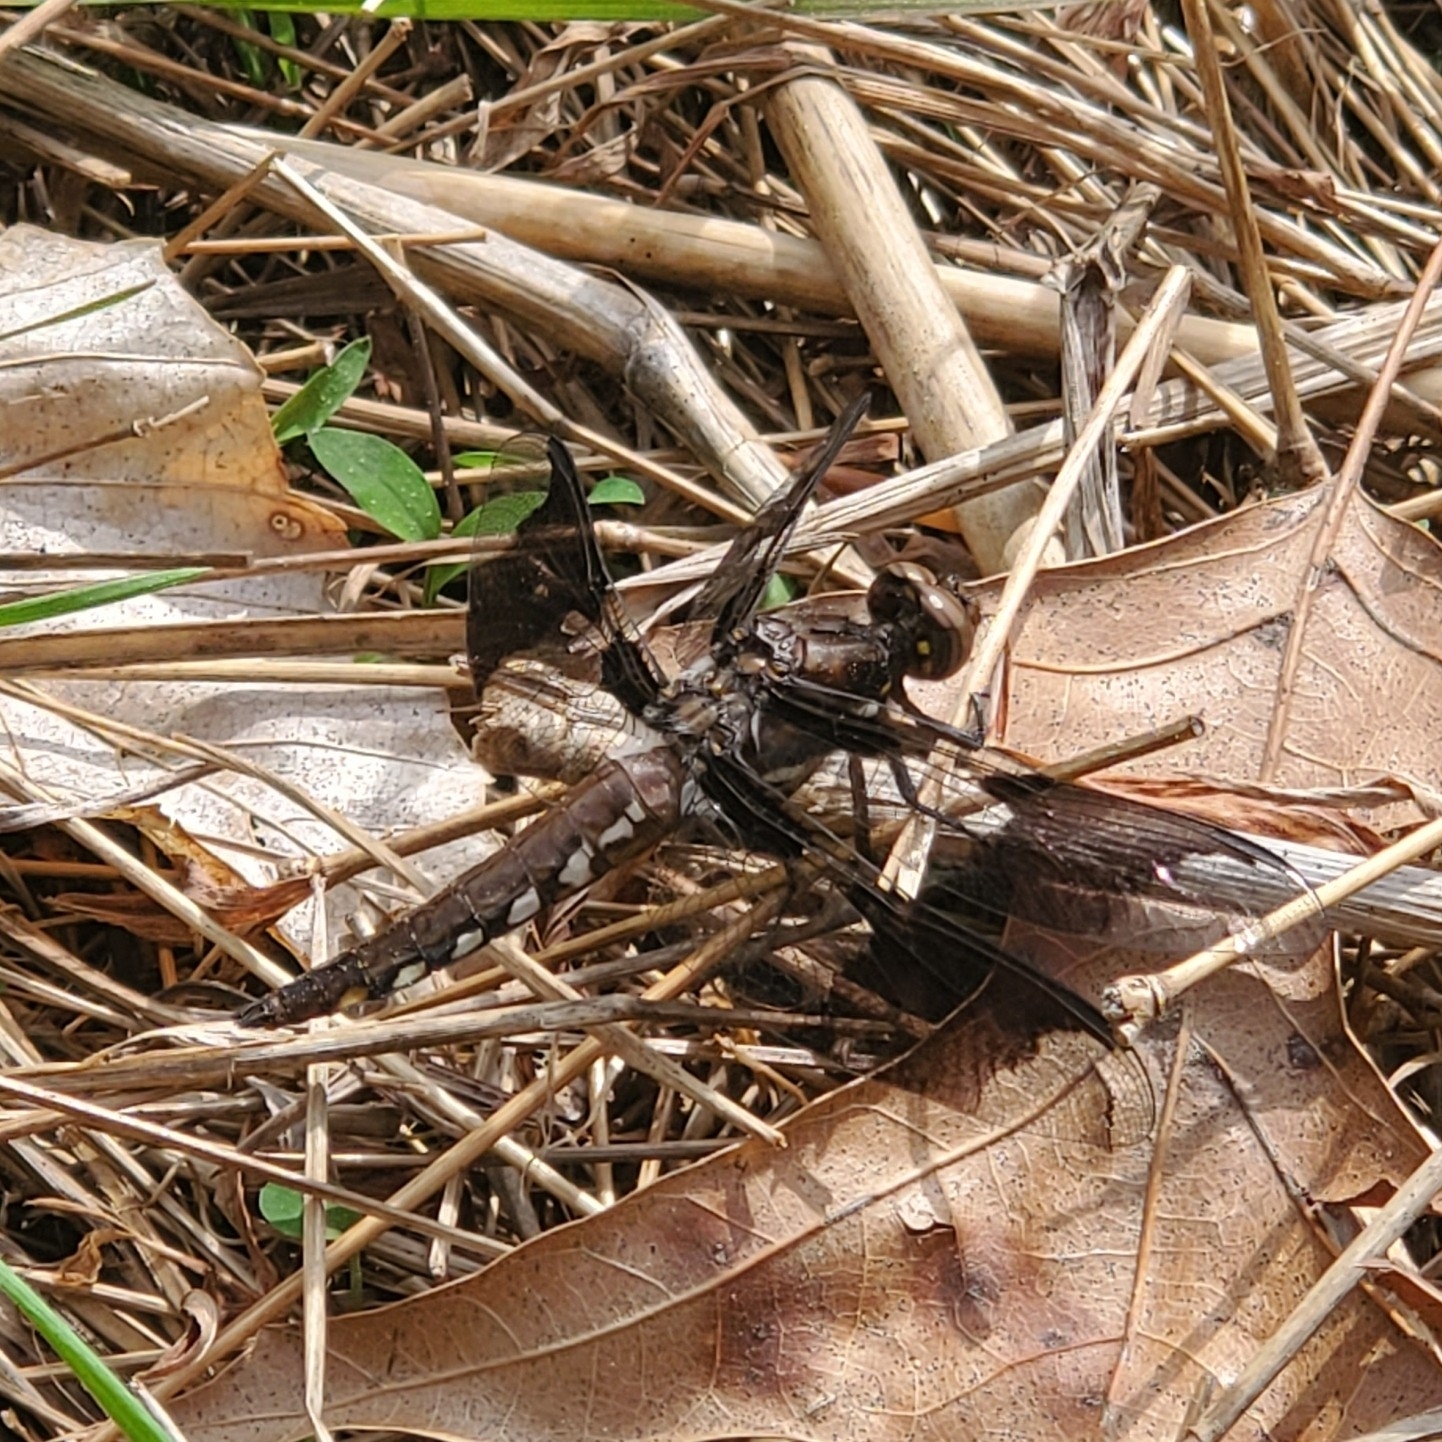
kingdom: Animalia
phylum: Arthropoda
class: Insecta
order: Odonata
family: Libellulidae
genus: Plathemis
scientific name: Plathemis lydia
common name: Common whitetail
